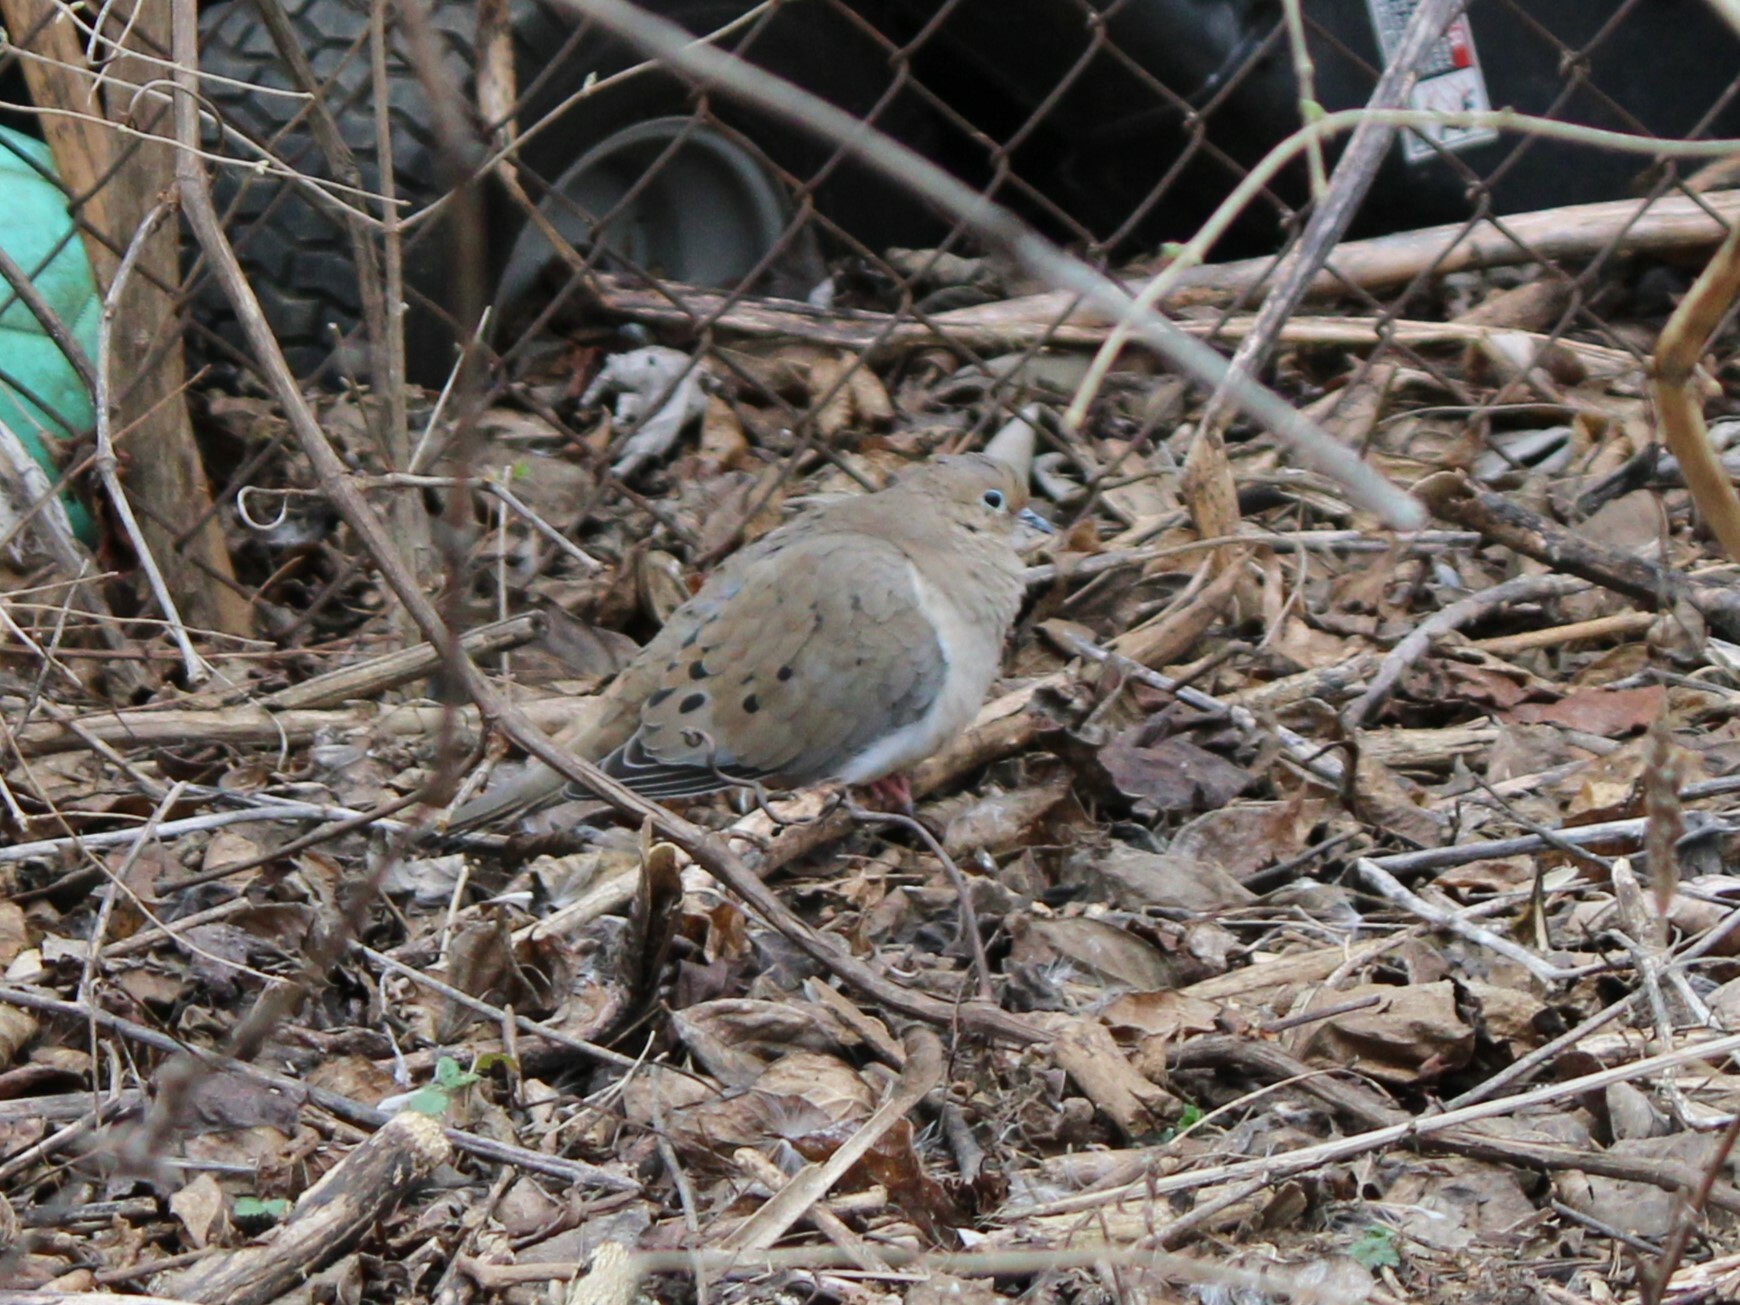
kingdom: Animalia
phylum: Chordata
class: Aves
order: Columbiformes
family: Columbidae
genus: Zenaida
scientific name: Zenaida macroura
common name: Mourning dove
